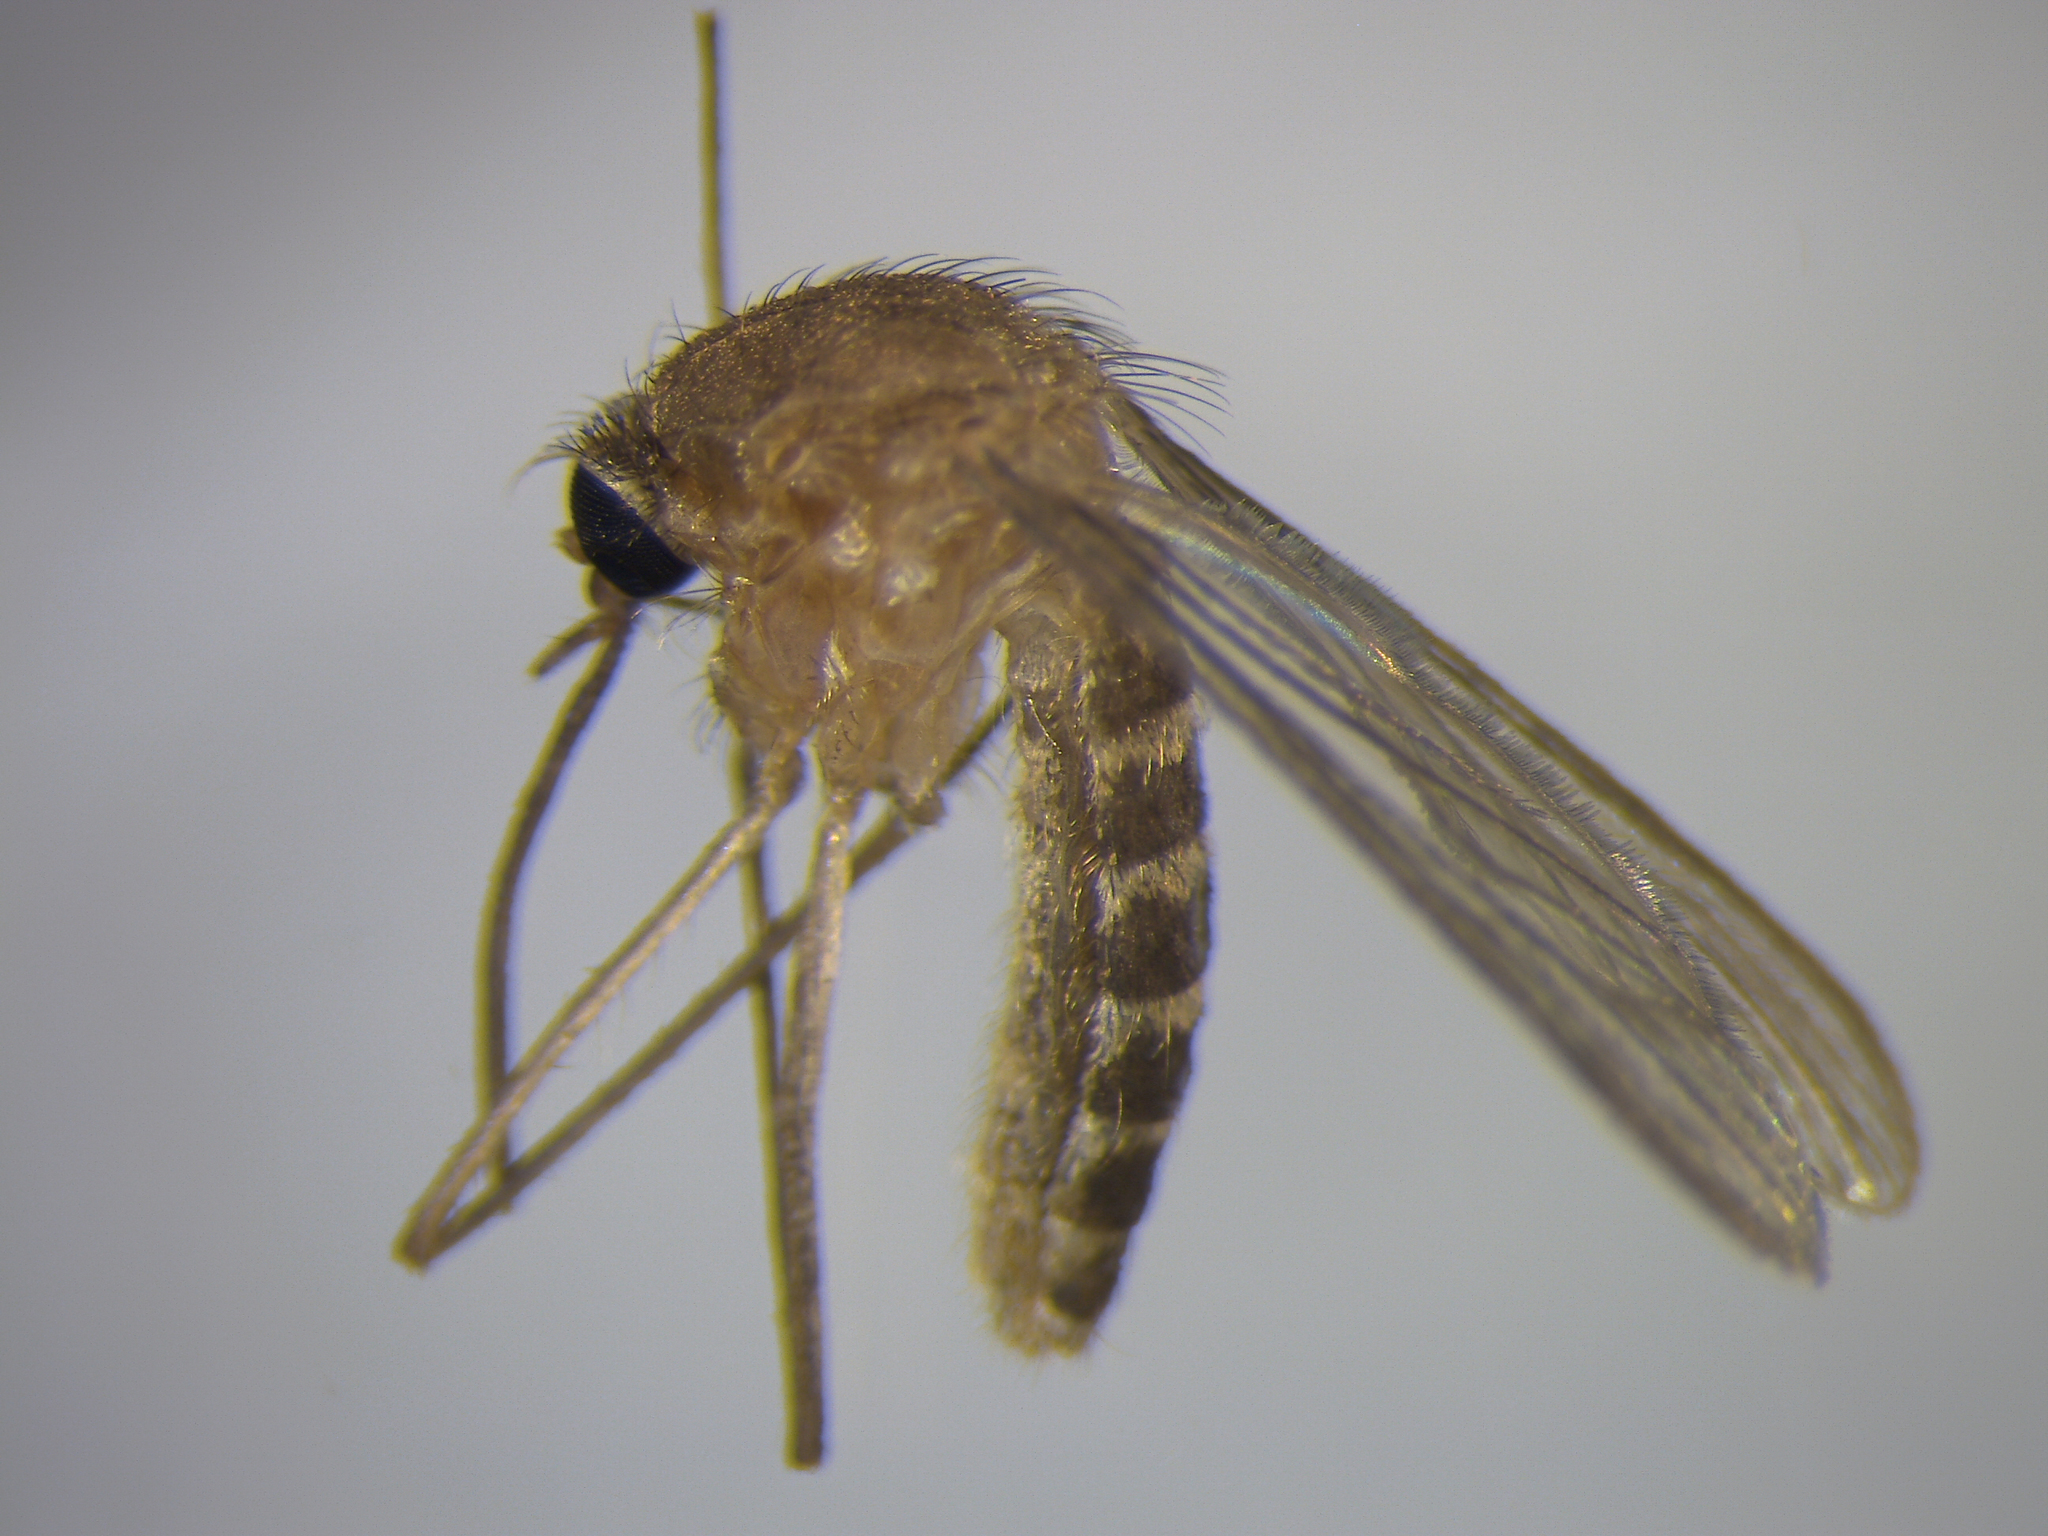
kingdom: Animalia
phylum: Arthropoda
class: Insecta
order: Diptera
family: Culicidae
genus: Culex
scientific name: Culex quinquefasciatus
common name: Southern house mosquito
